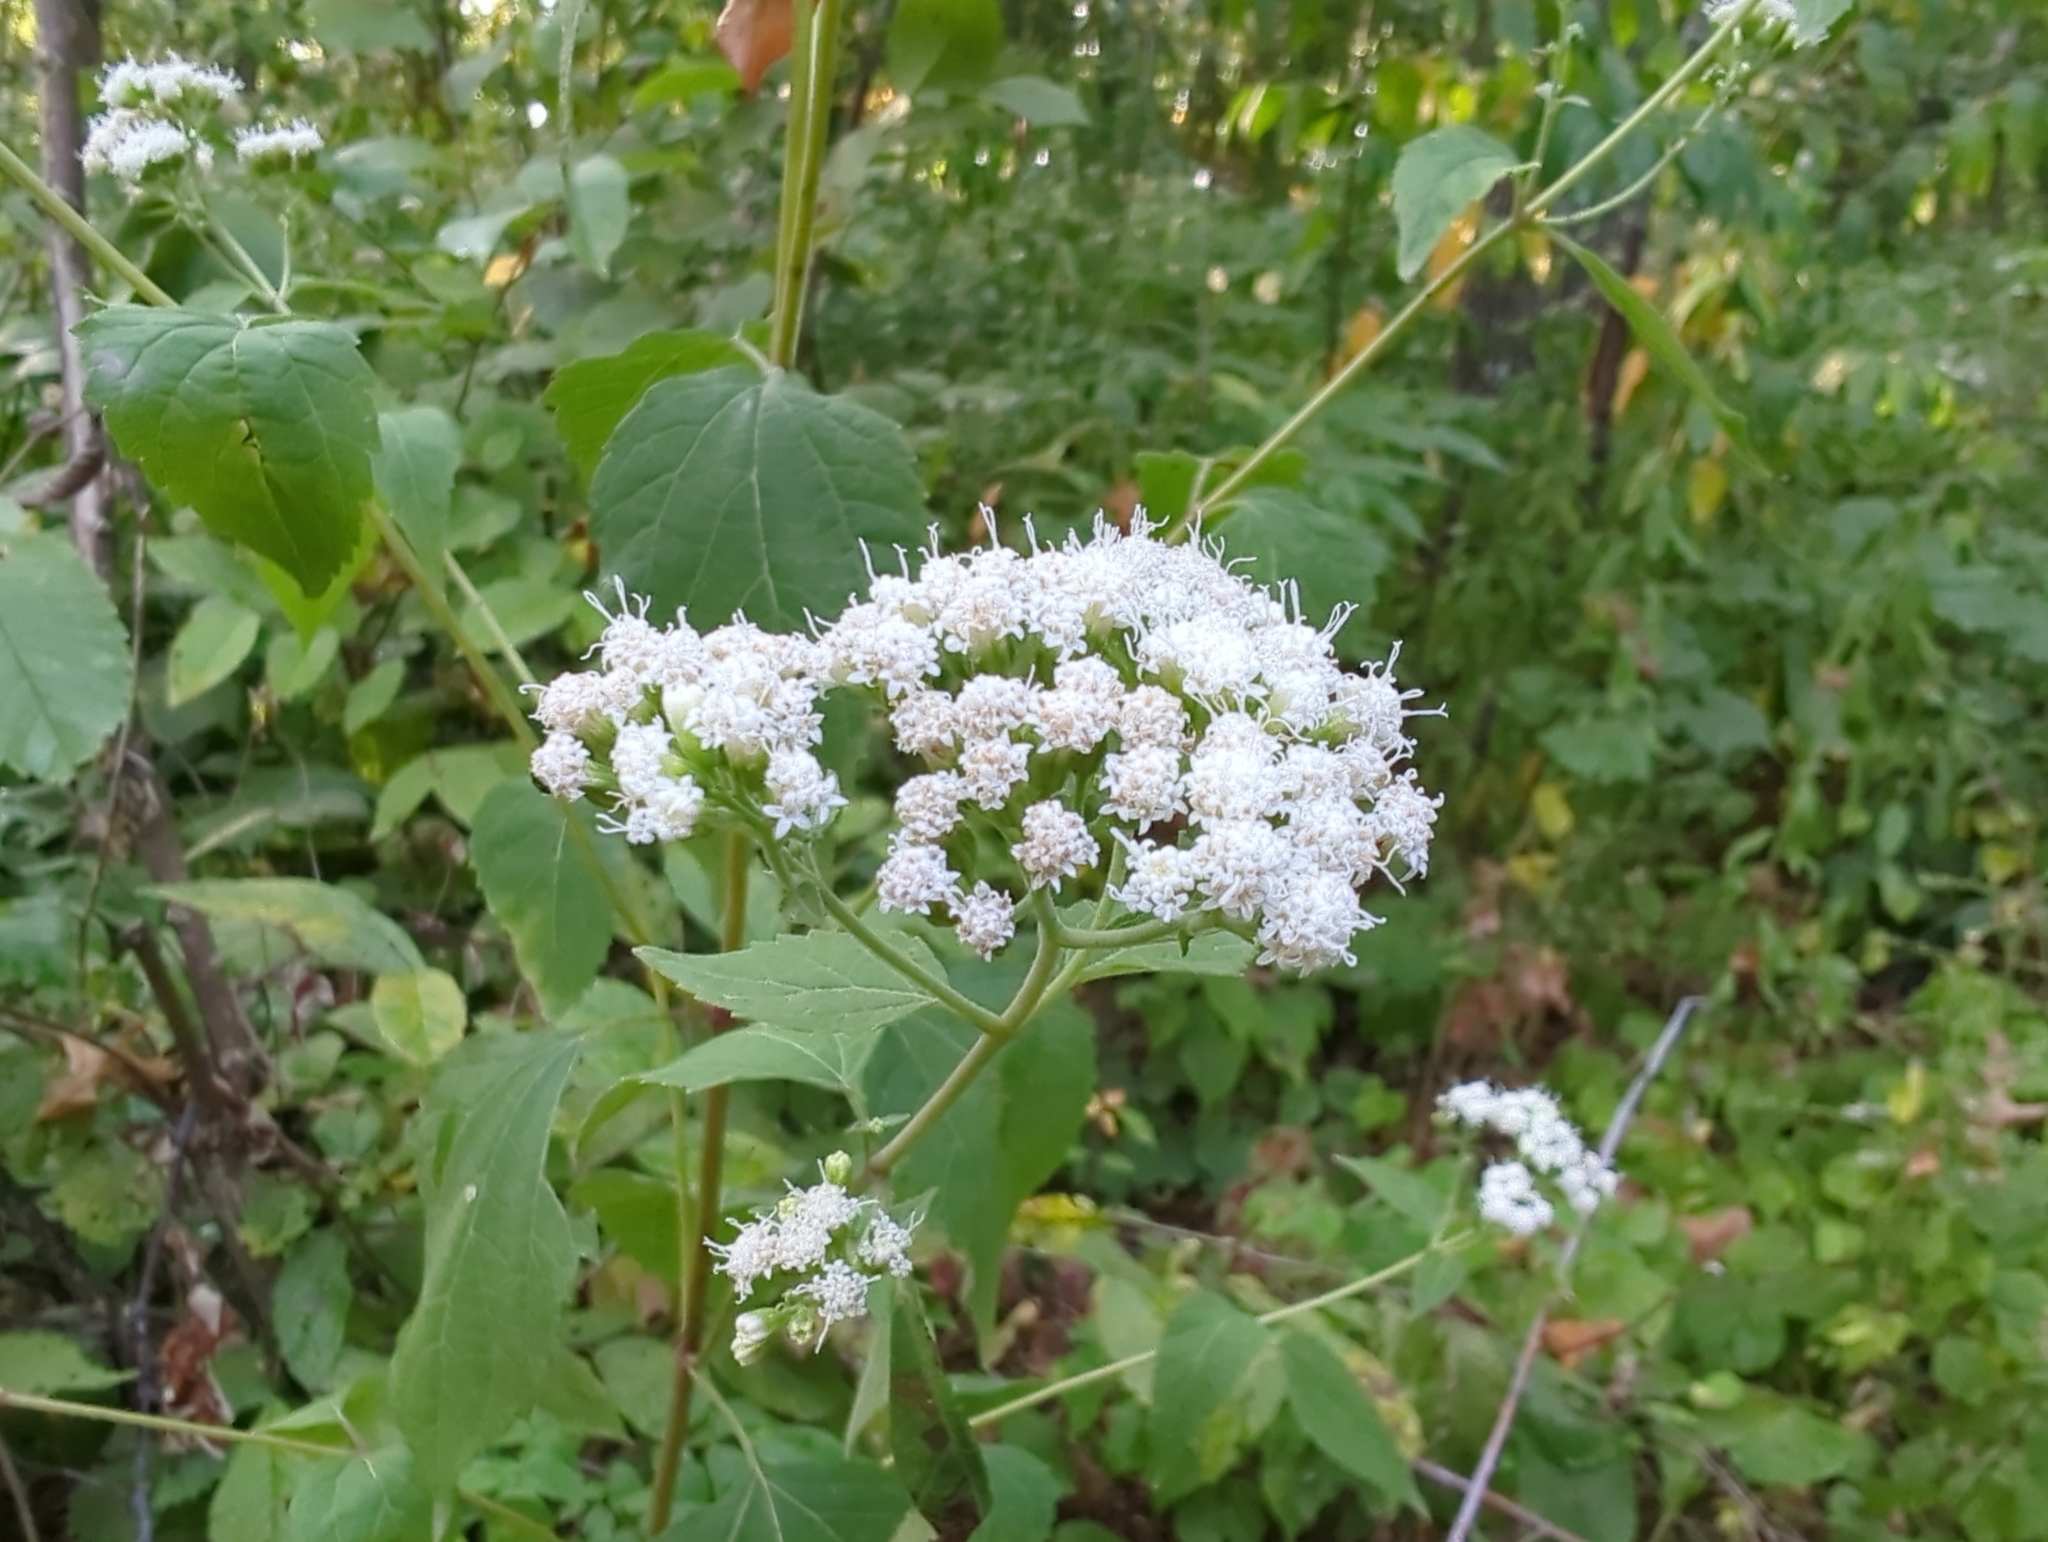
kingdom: Plantae
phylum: Tracheophyta
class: Magnoliopsida
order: Asterales
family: Asteraceae
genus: Ageratina
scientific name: Ageratina altissima
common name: White snakeroot
